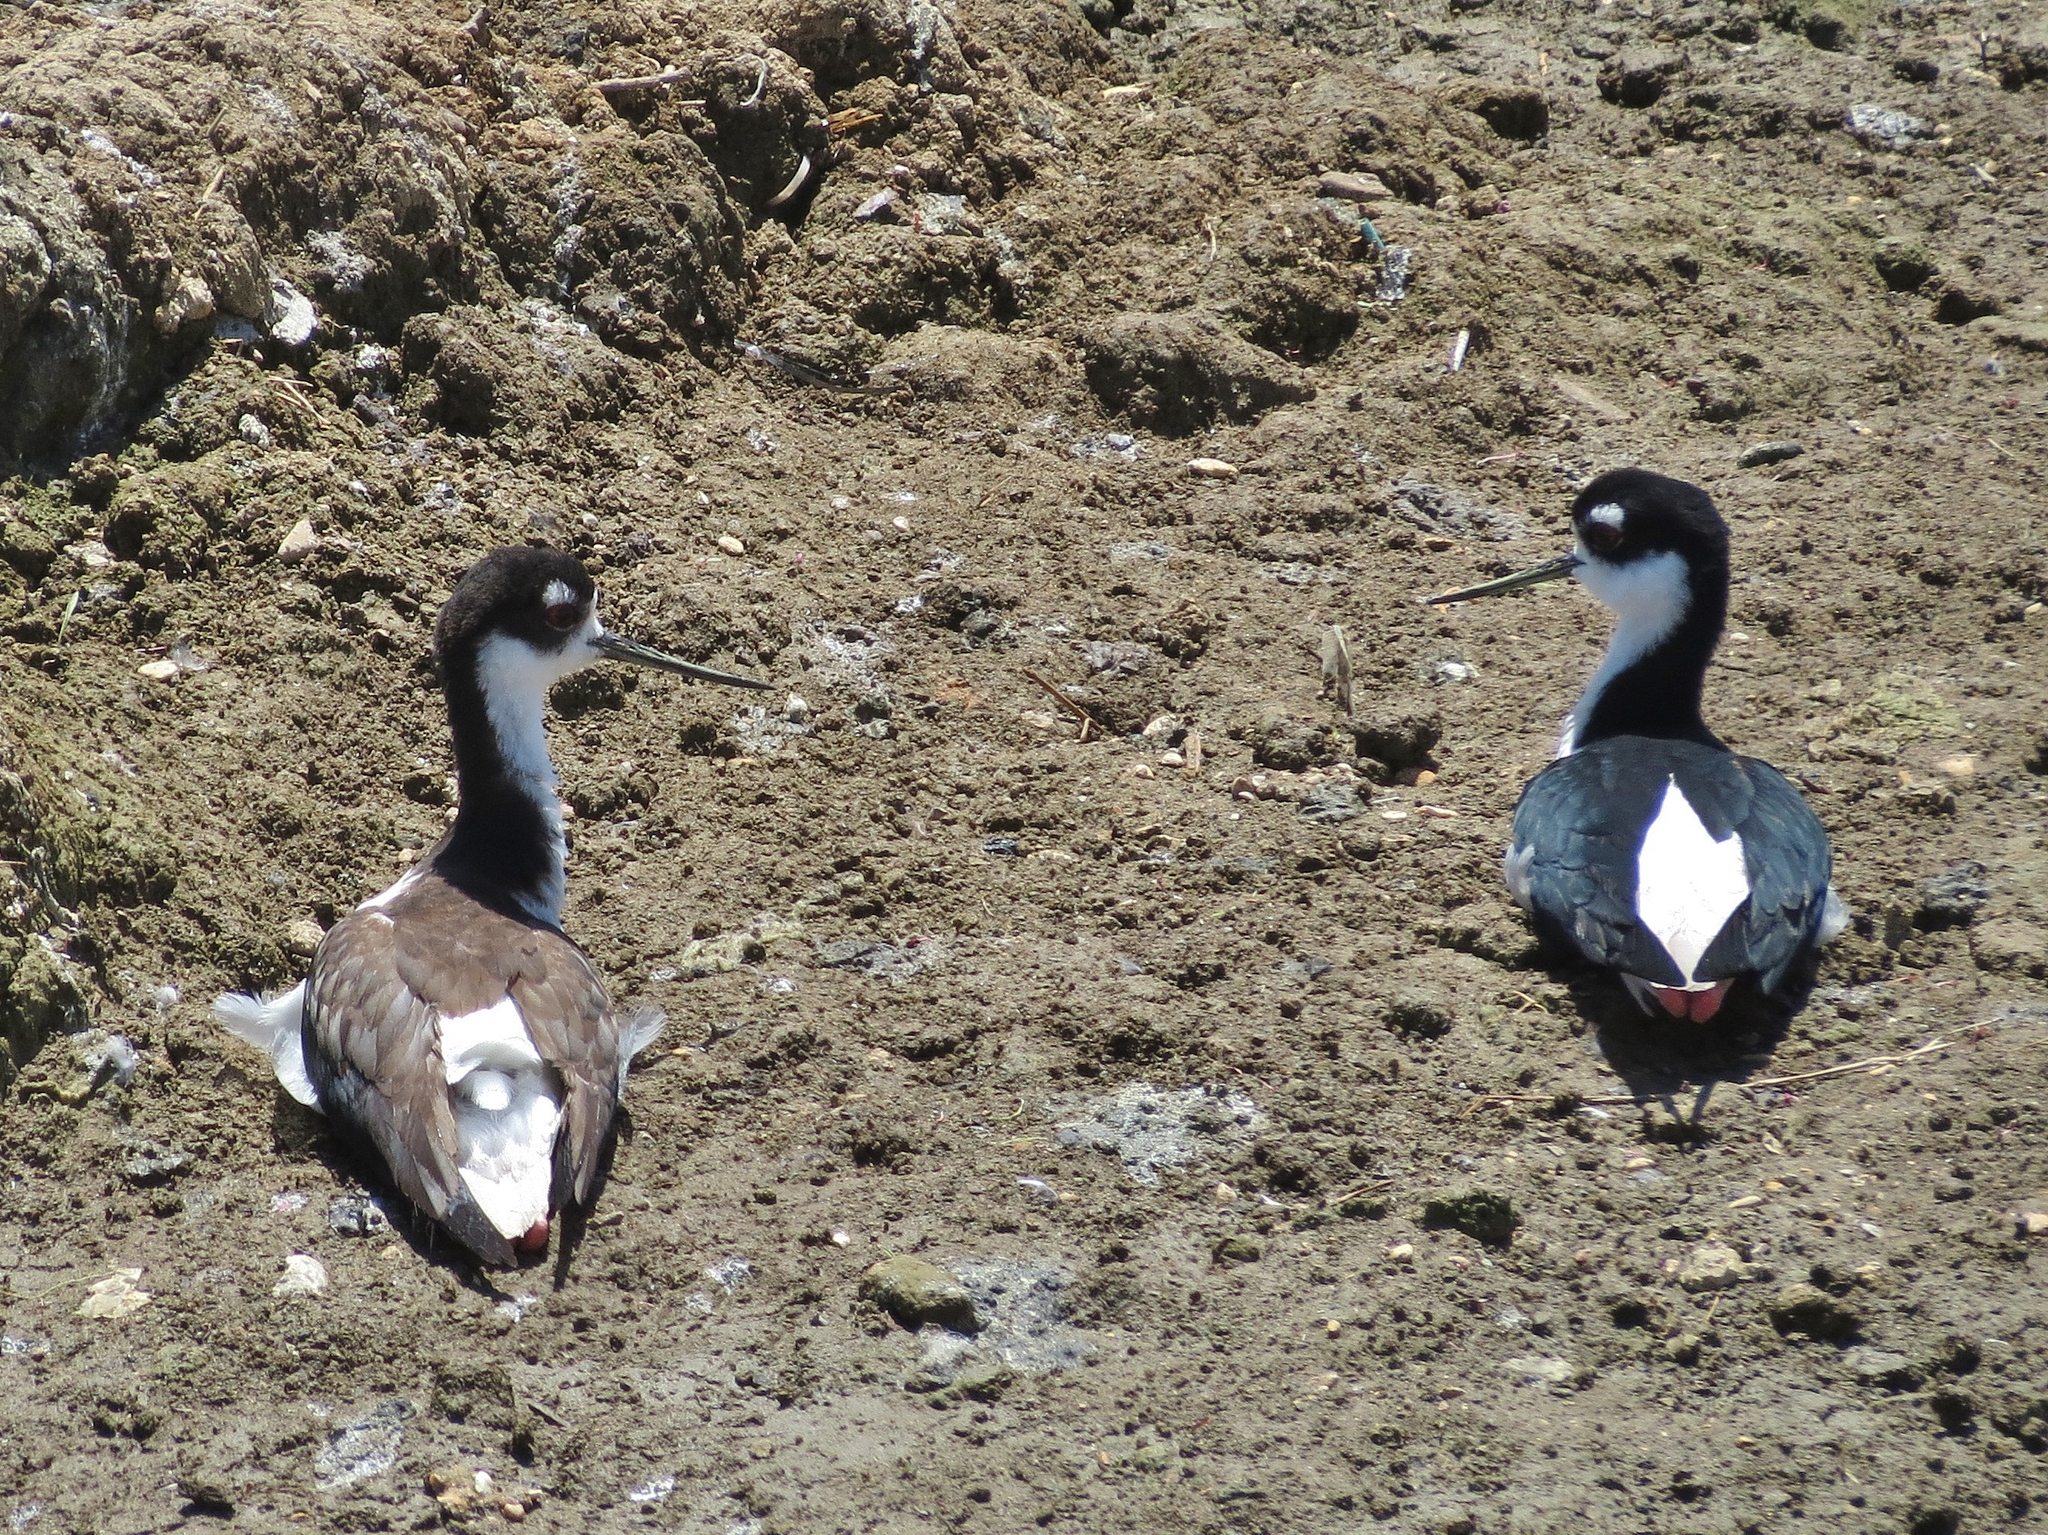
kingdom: Animalia
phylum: Chordata
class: Aves
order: Charadriiformes
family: Recurvirostridae
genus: Himantopus
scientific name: Himantopus mexicanus
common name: Black-necked stilt
